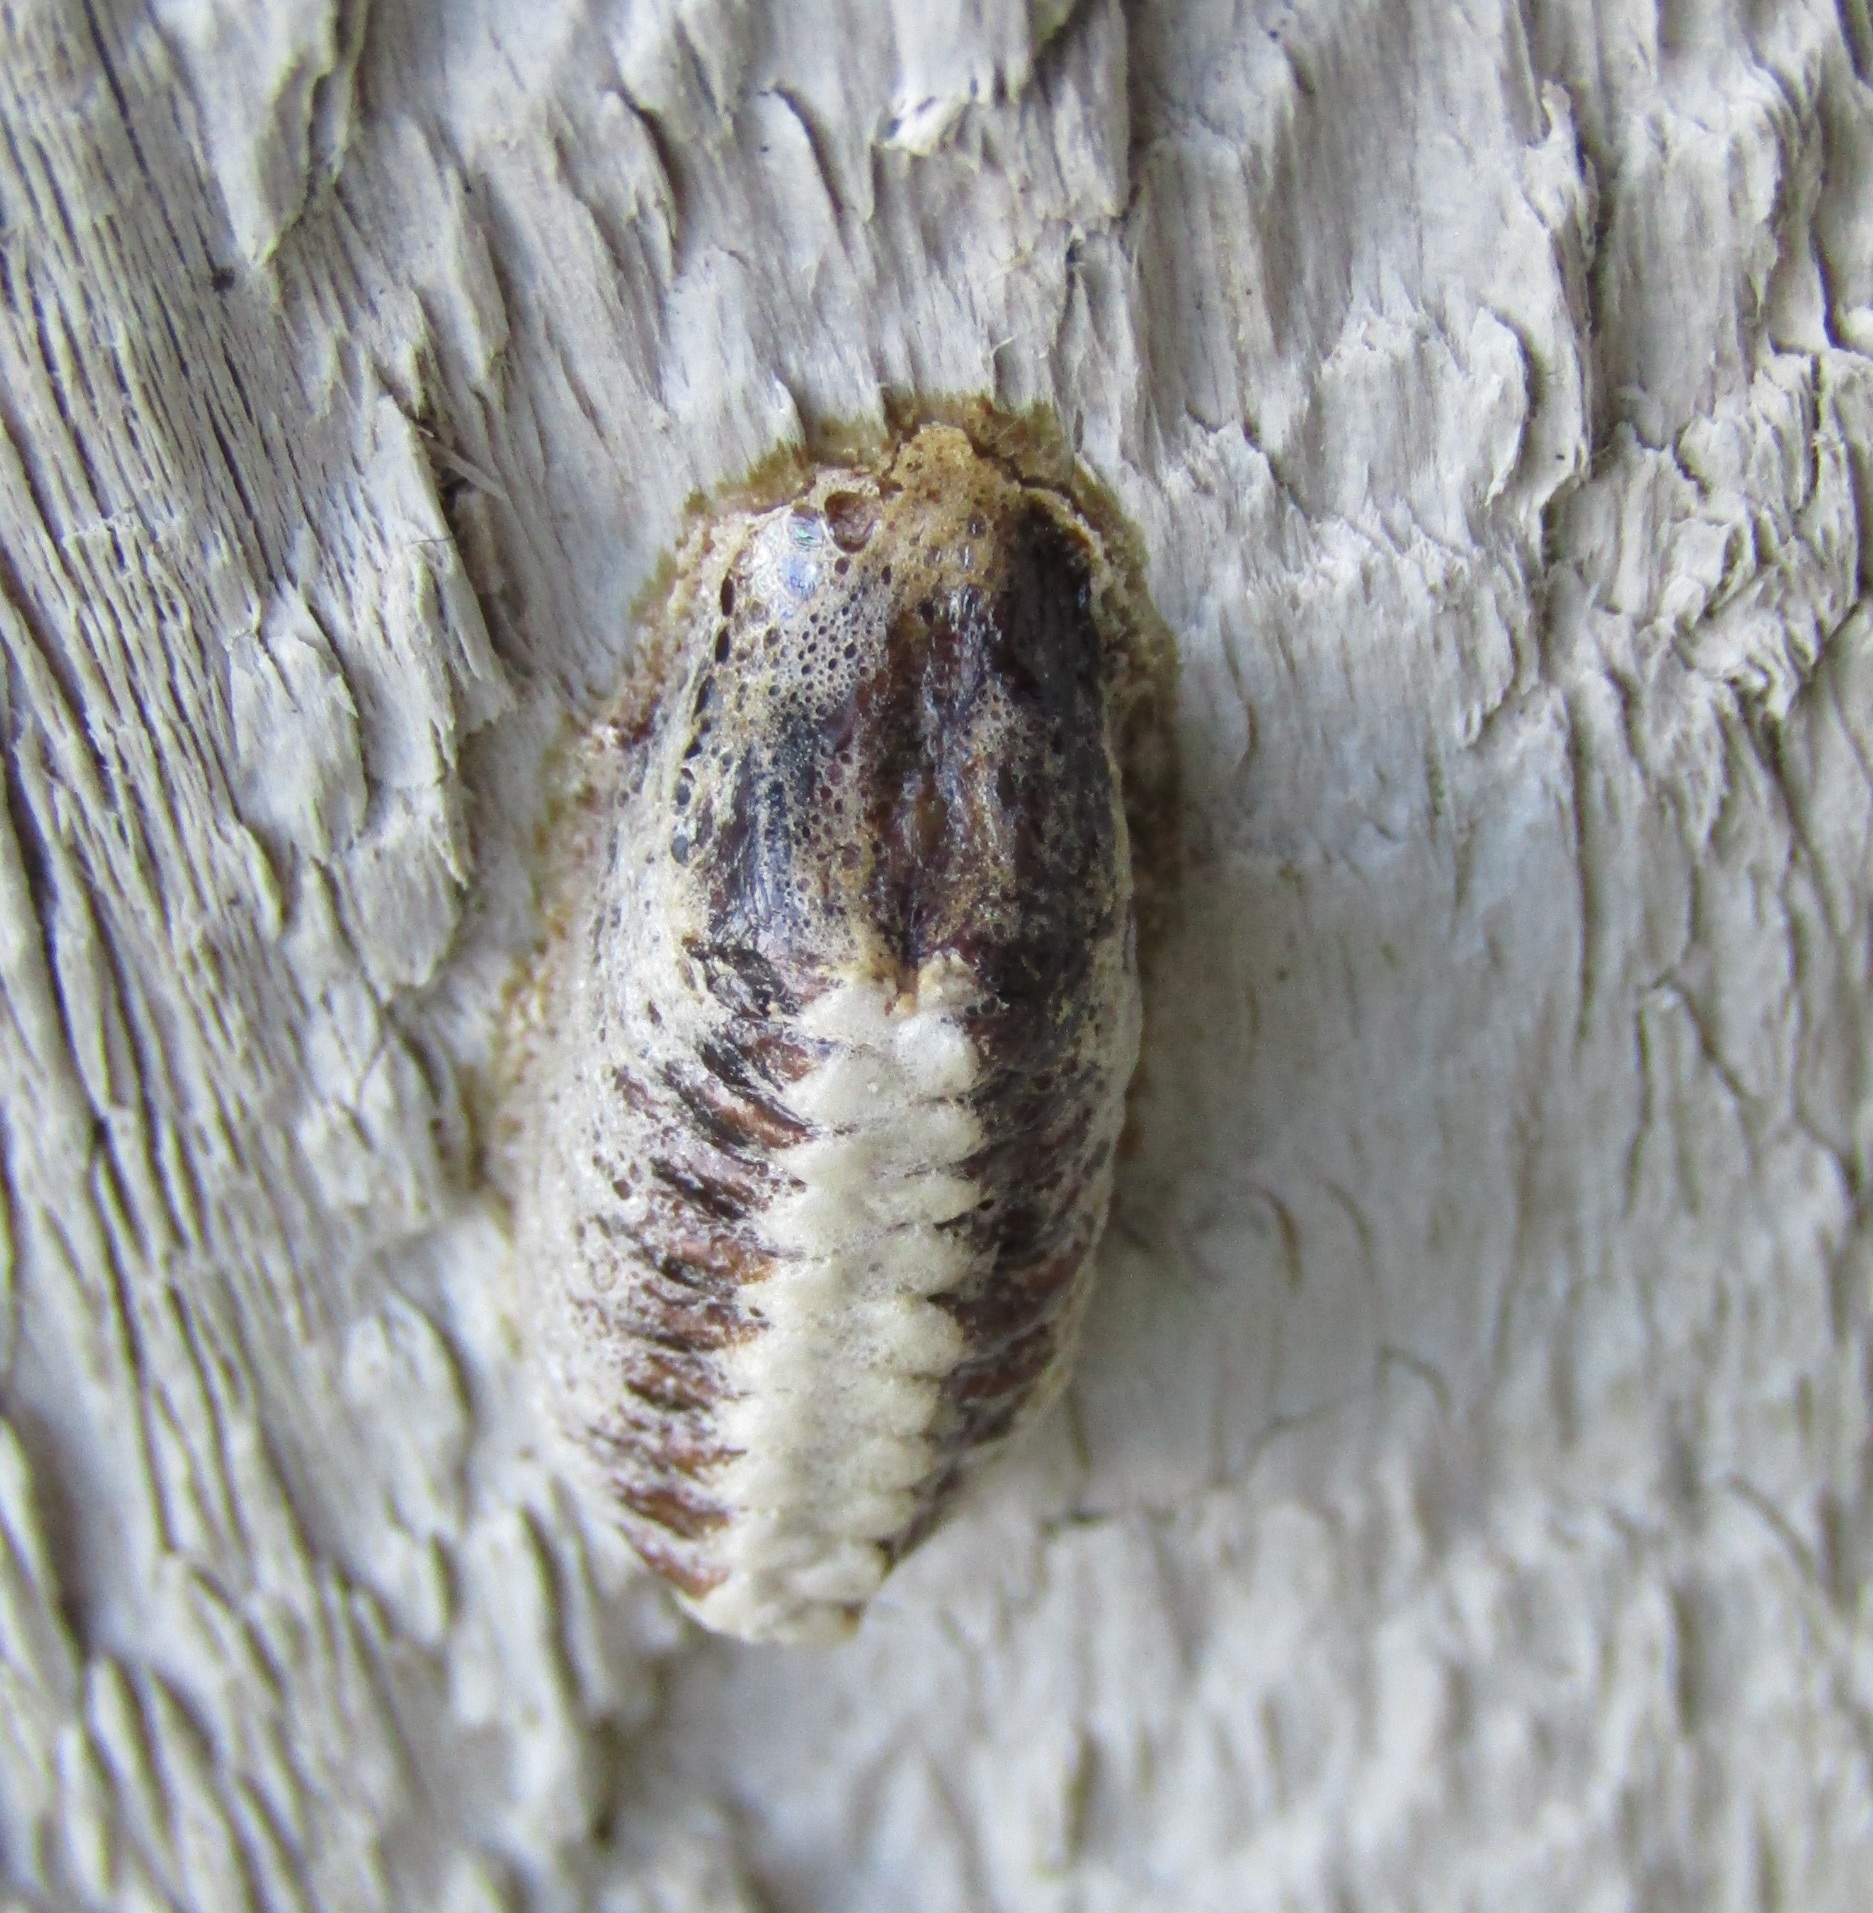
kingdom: Animalia
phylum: Arthropoda
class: Insecta
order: Mantodea
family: Mantidae
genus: Orthodera
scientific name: Orthodera novaezealandiae
